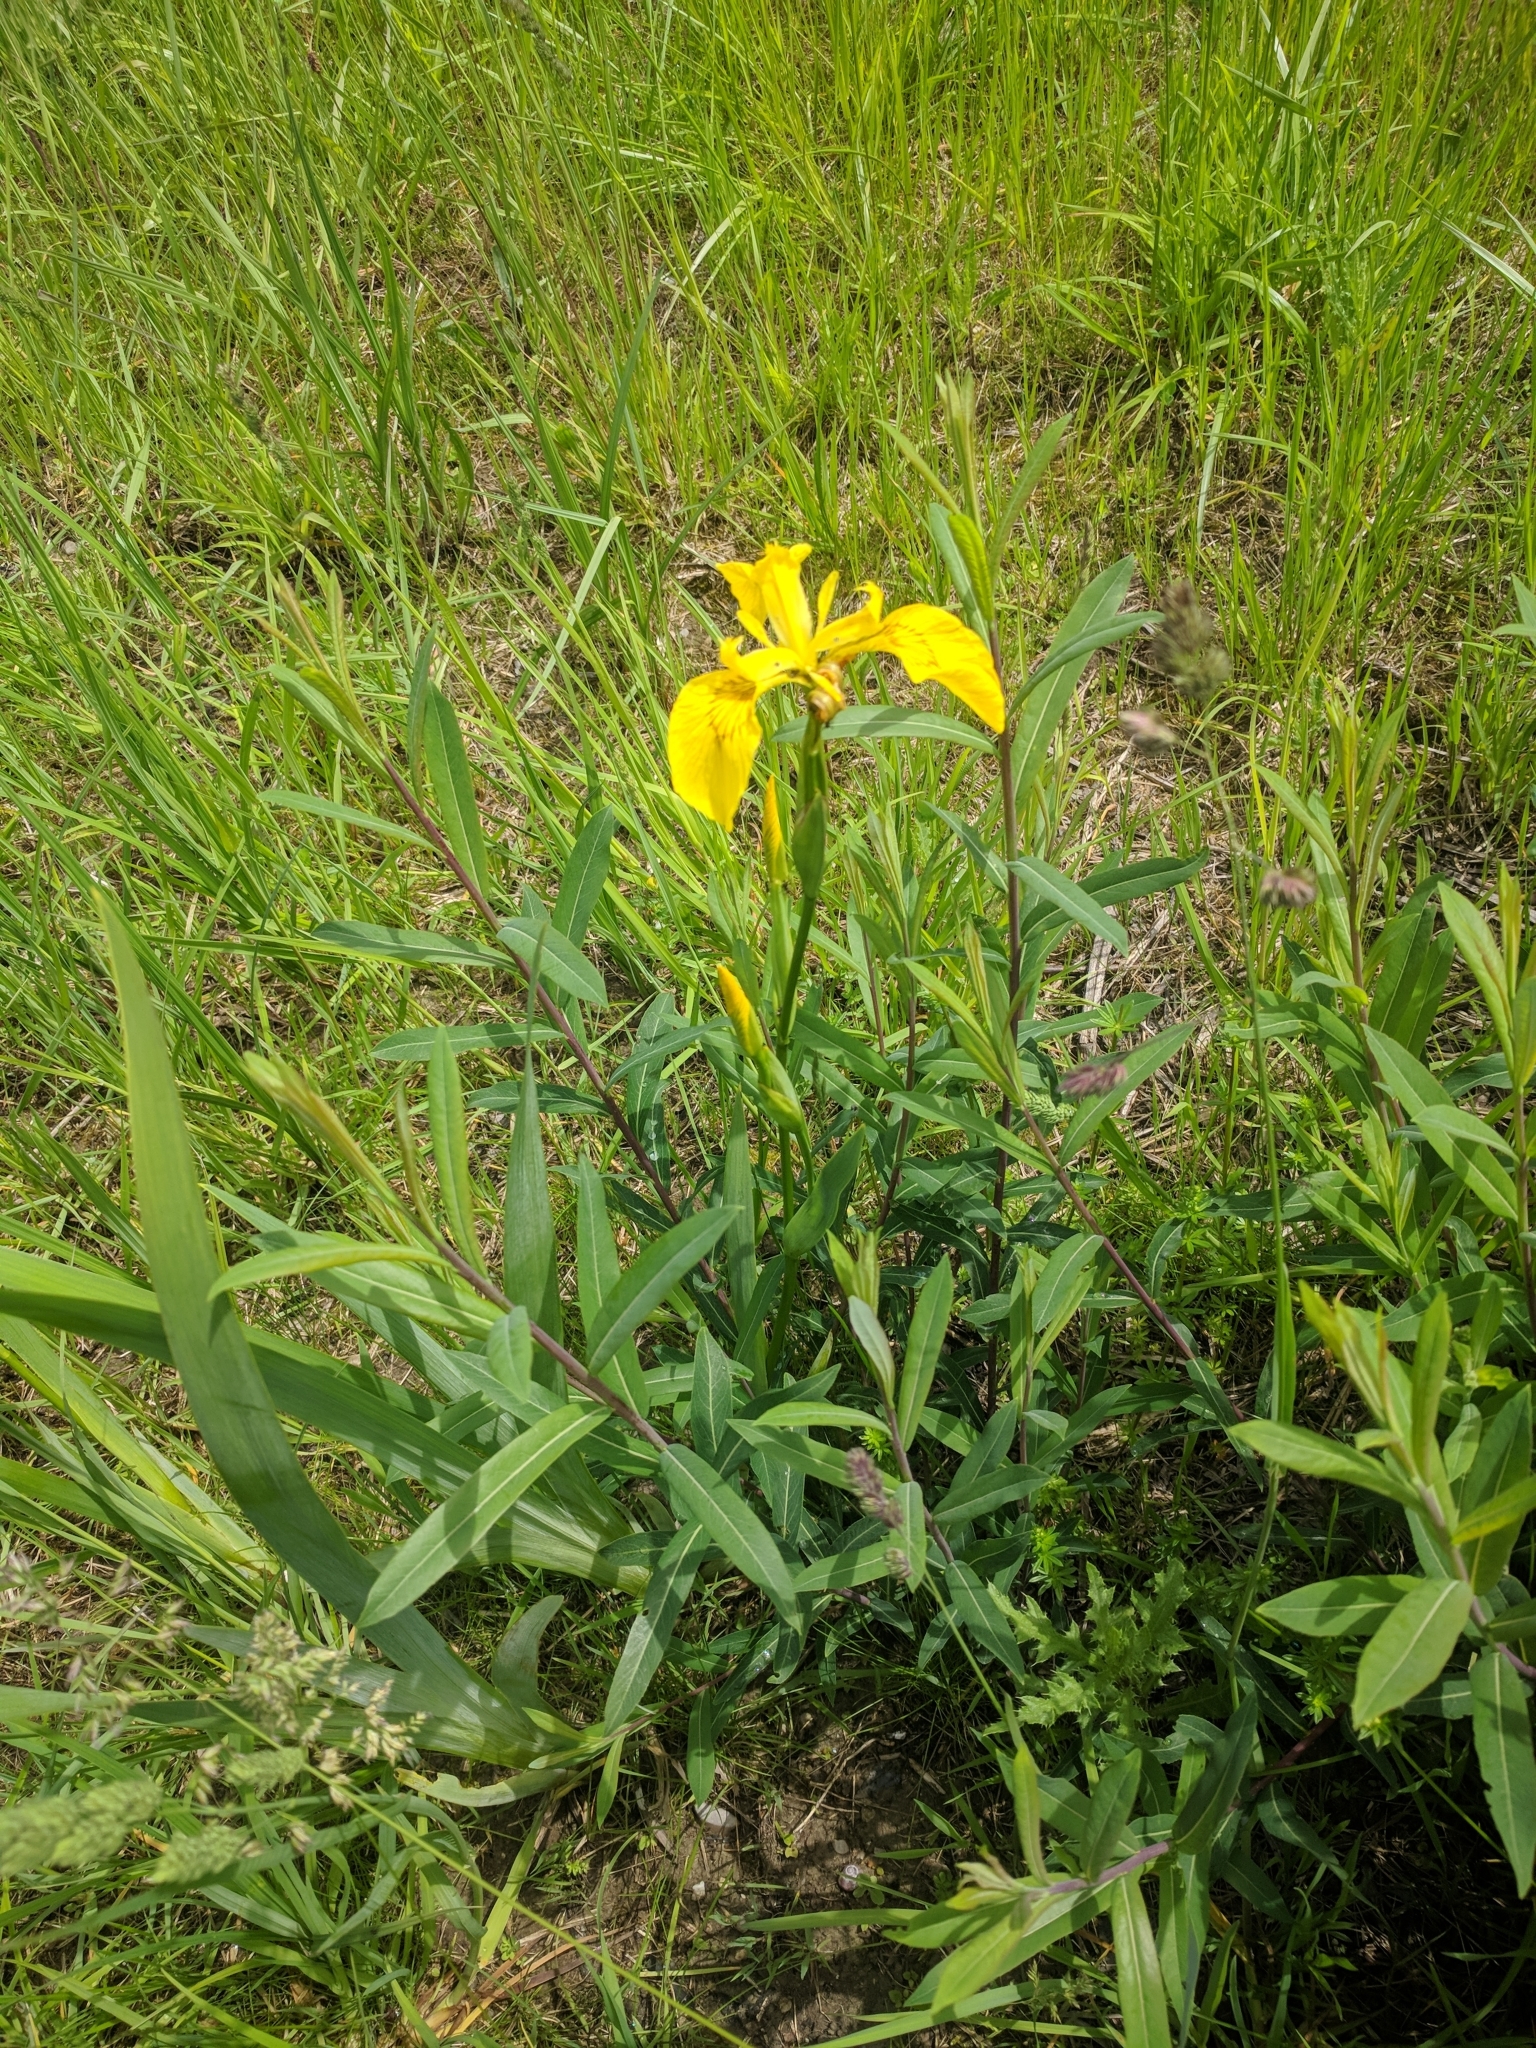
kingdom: Plantae
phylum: Tracheophyta
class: Liliopsida
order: Asparagales
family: Iridaceae
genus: Iris
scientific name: Iris pseudacorus
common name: Yellow flag
